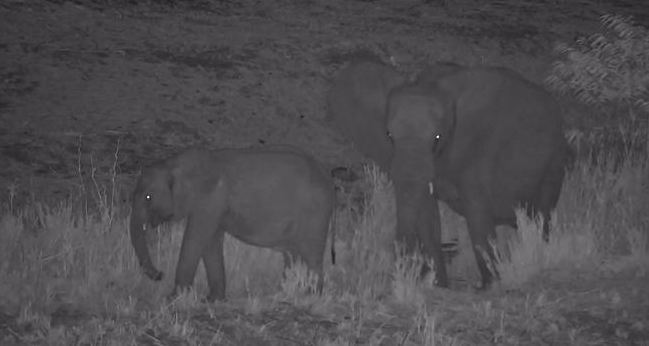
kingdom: Animalia
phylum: Chordata
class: Mammalia
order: Proboscidea
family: Elephantidae
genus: Loxodonta
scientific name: Loxodonta africana
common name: African elephant
